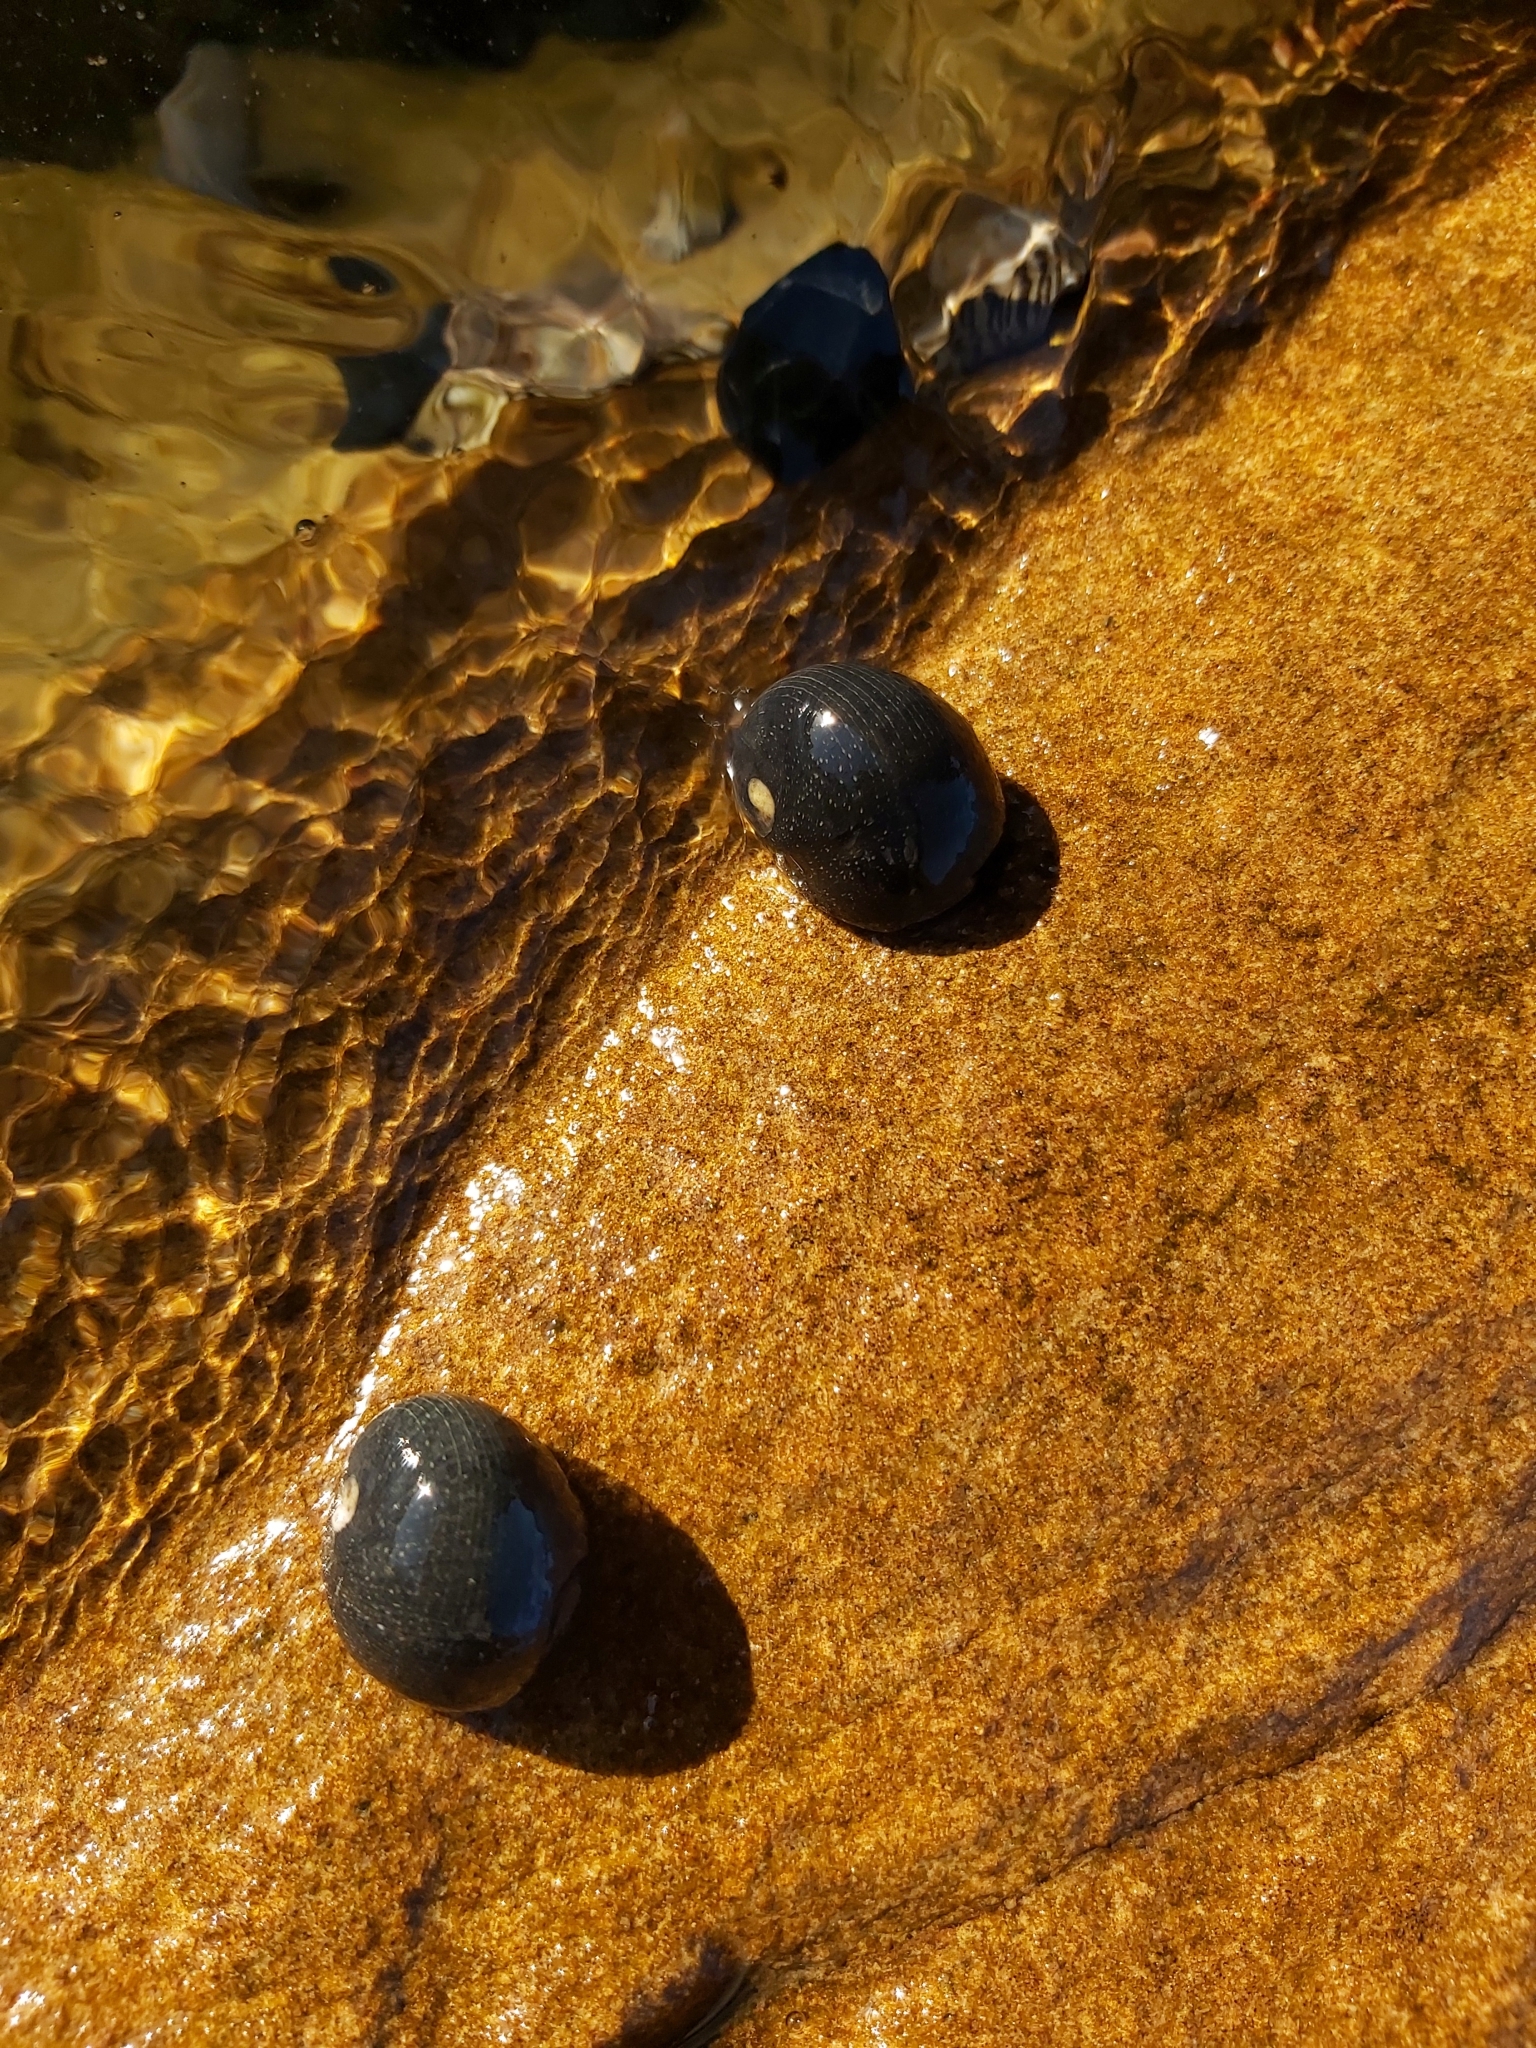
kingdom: Animalia
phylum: Mollusca
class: Gastropoda
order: Cycloneritida
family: Neritidae
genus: Nerita
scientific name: Nerita melanotragus
